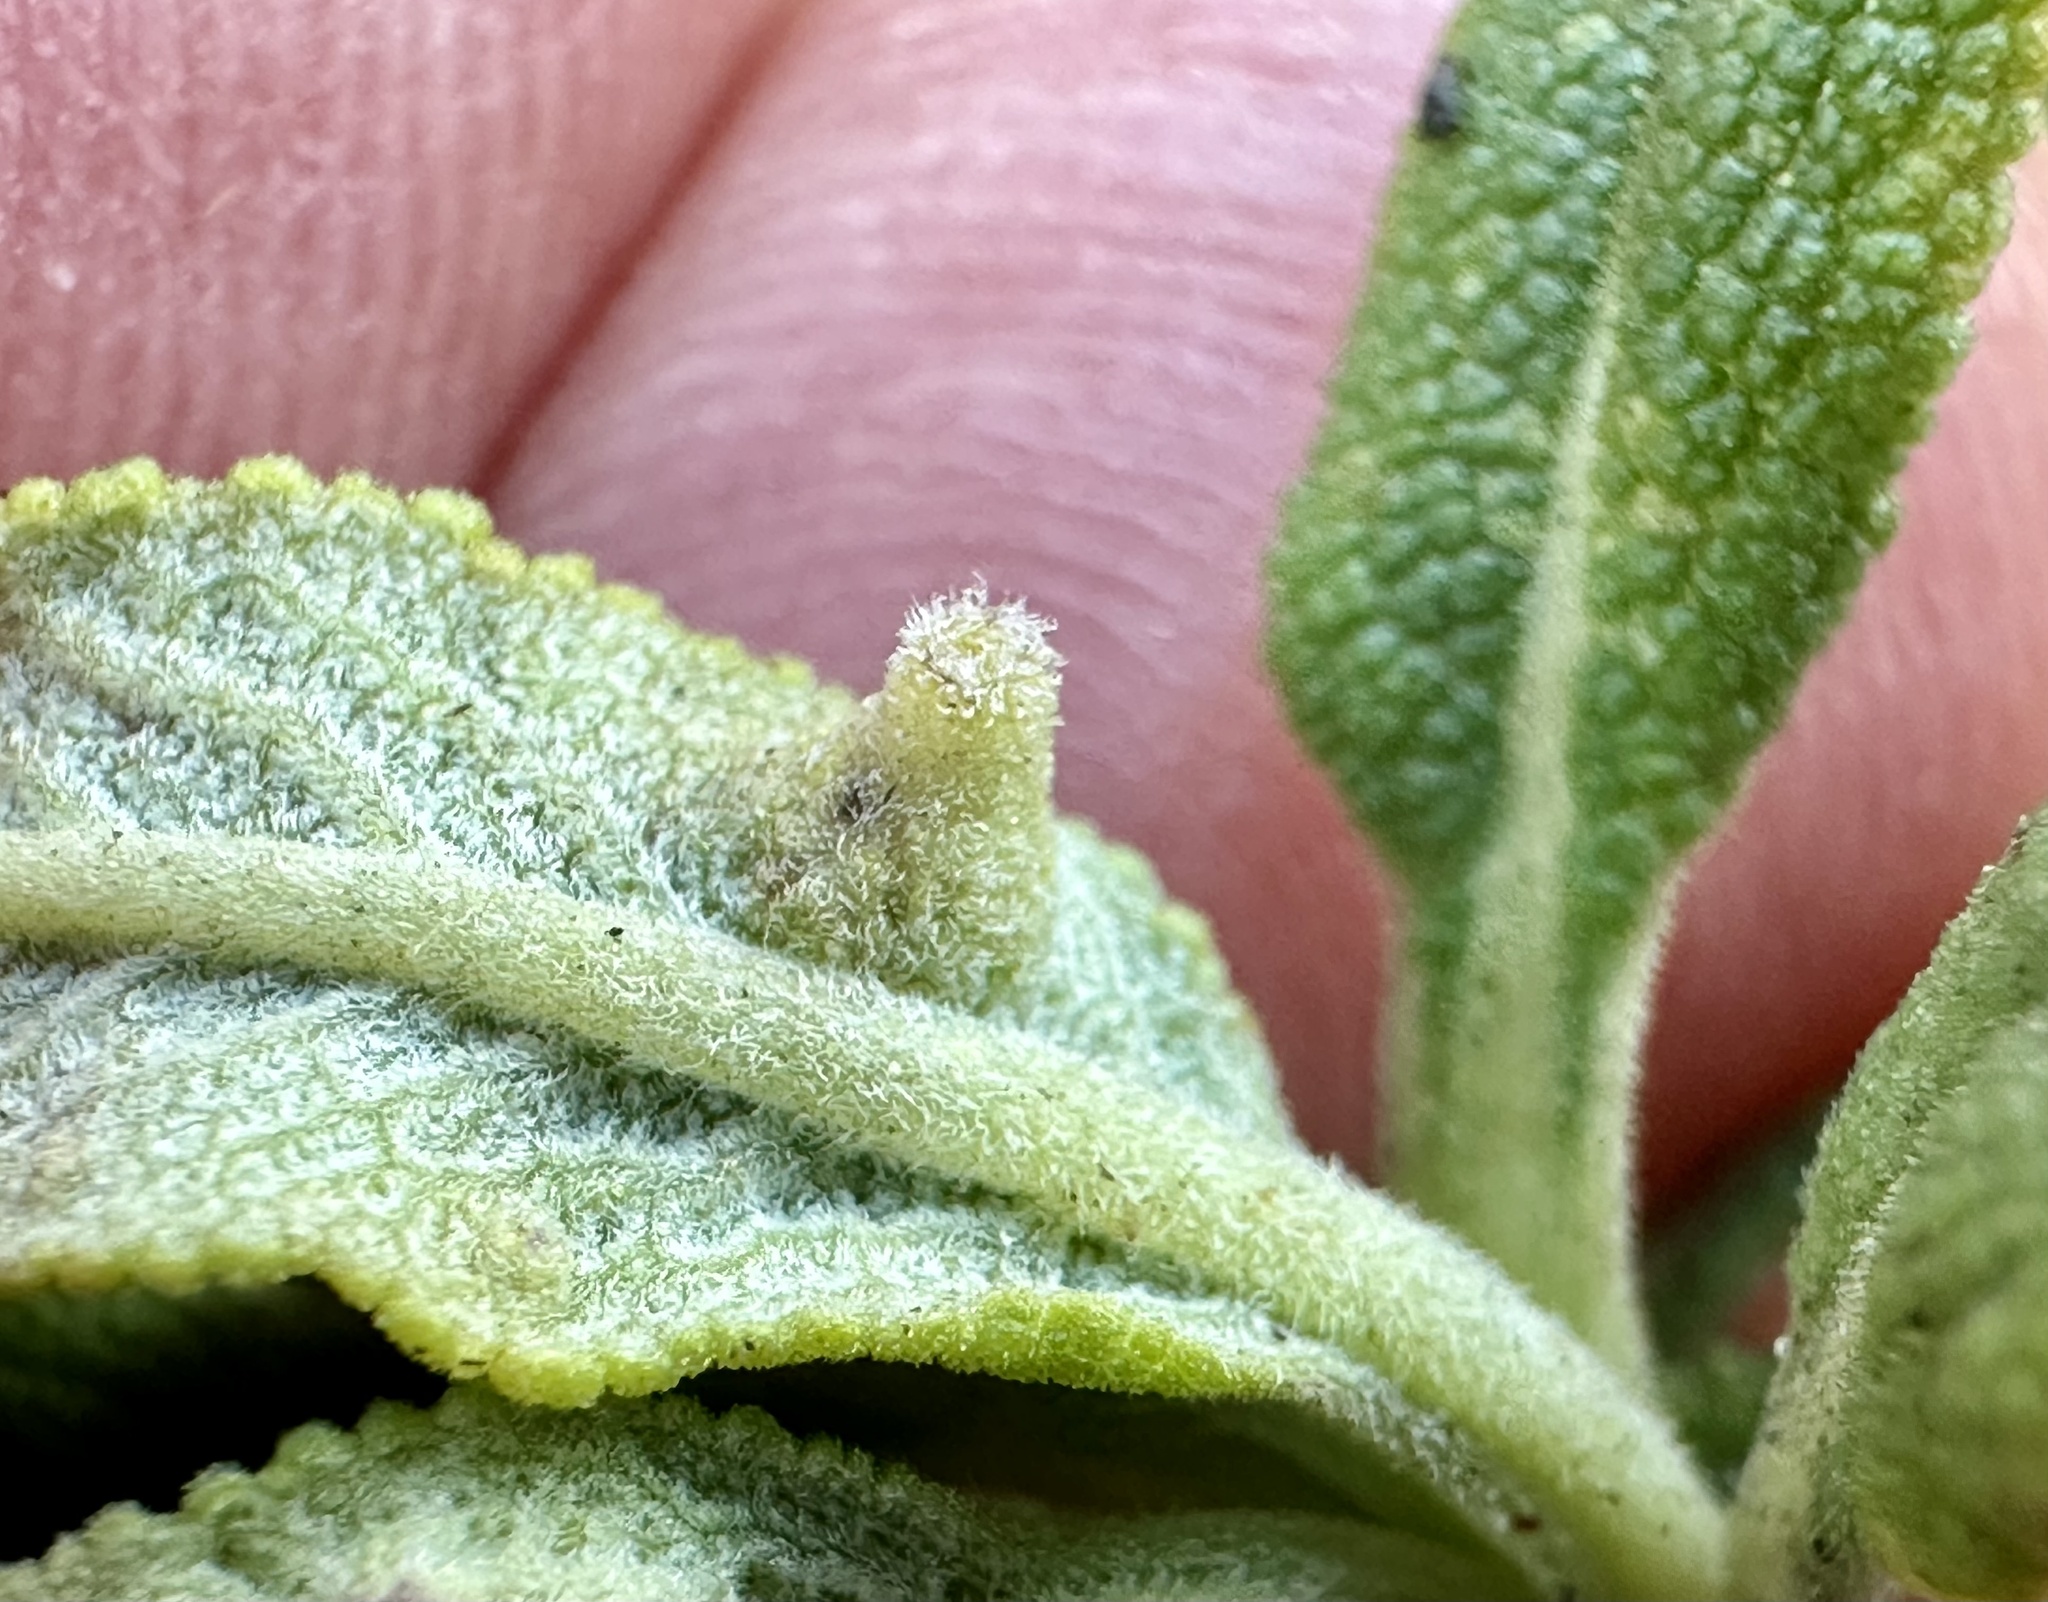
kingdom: Animalia
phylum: Arthropoda
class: Insecta
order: Diptera
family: Cecidomyiidae
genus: Rhopalomyia
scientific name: Rhopalomyia audibertiae
